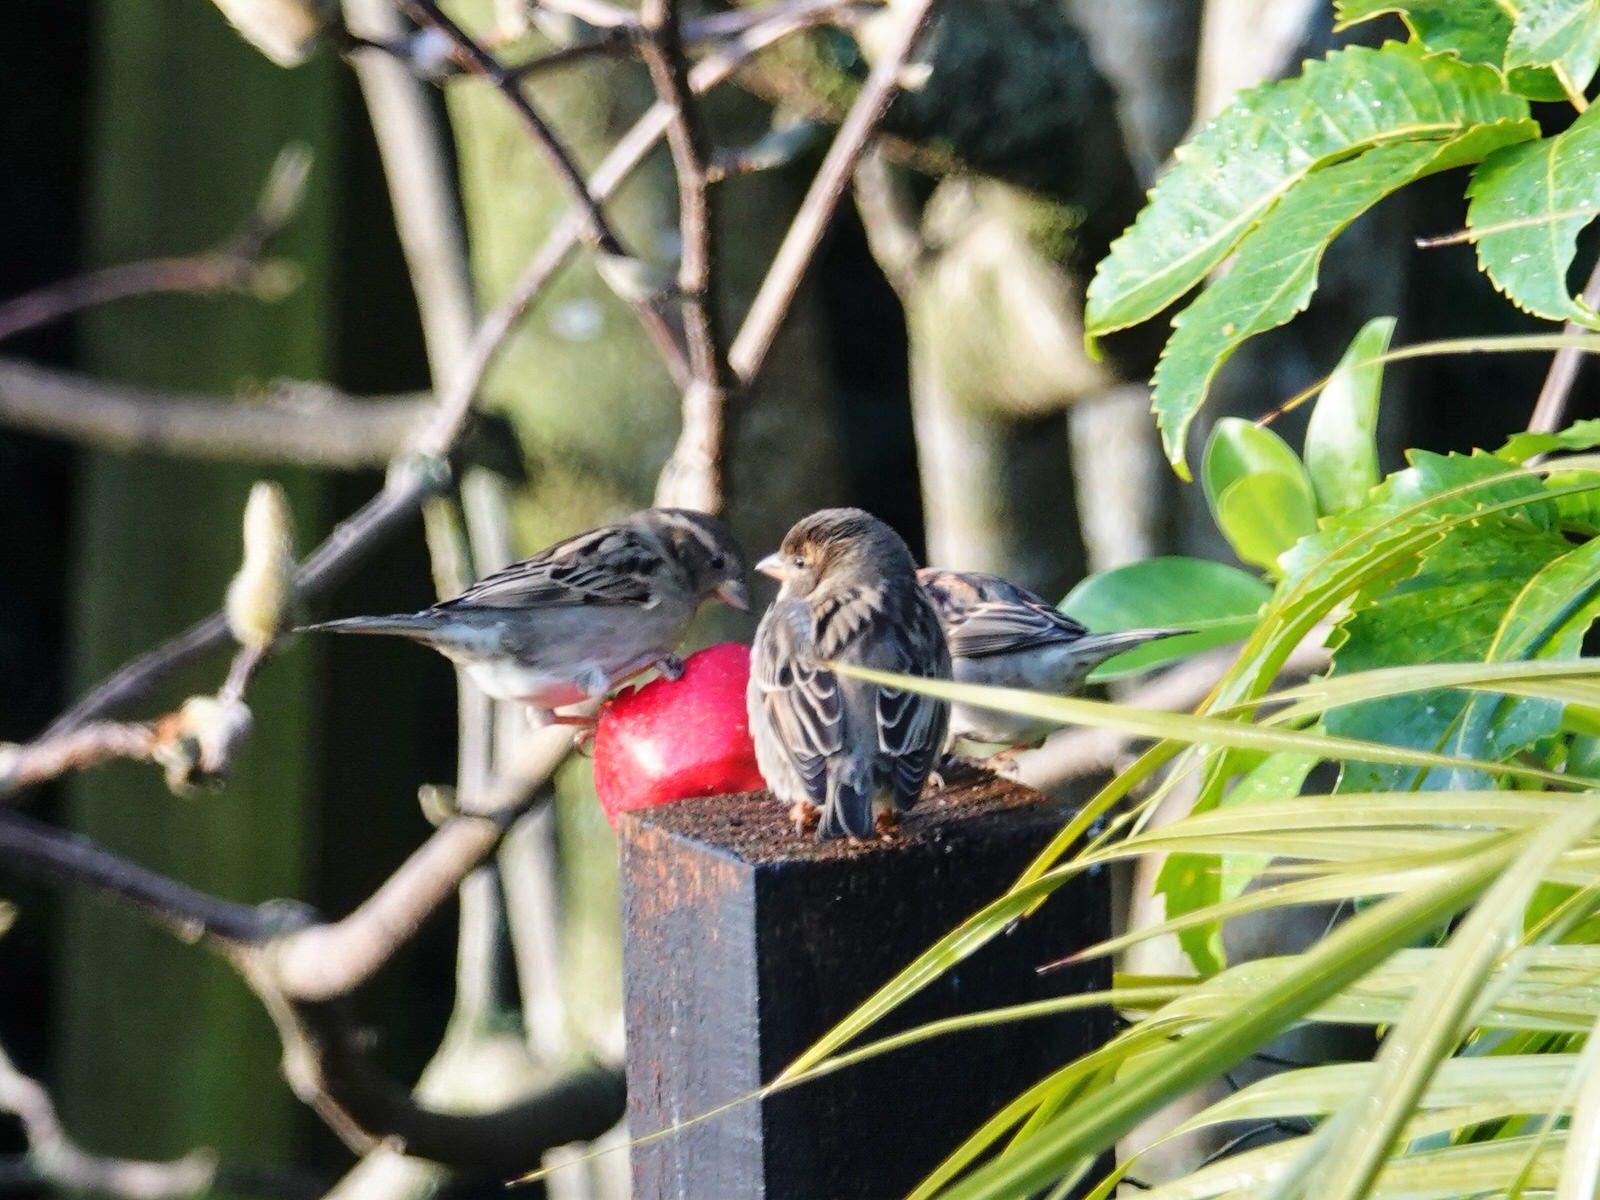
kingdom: Animalia
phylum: Chordata
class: Aves
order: Passeriformes
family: Passeridae
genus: Passer
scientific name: Passer domesticus
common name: House sparrow
